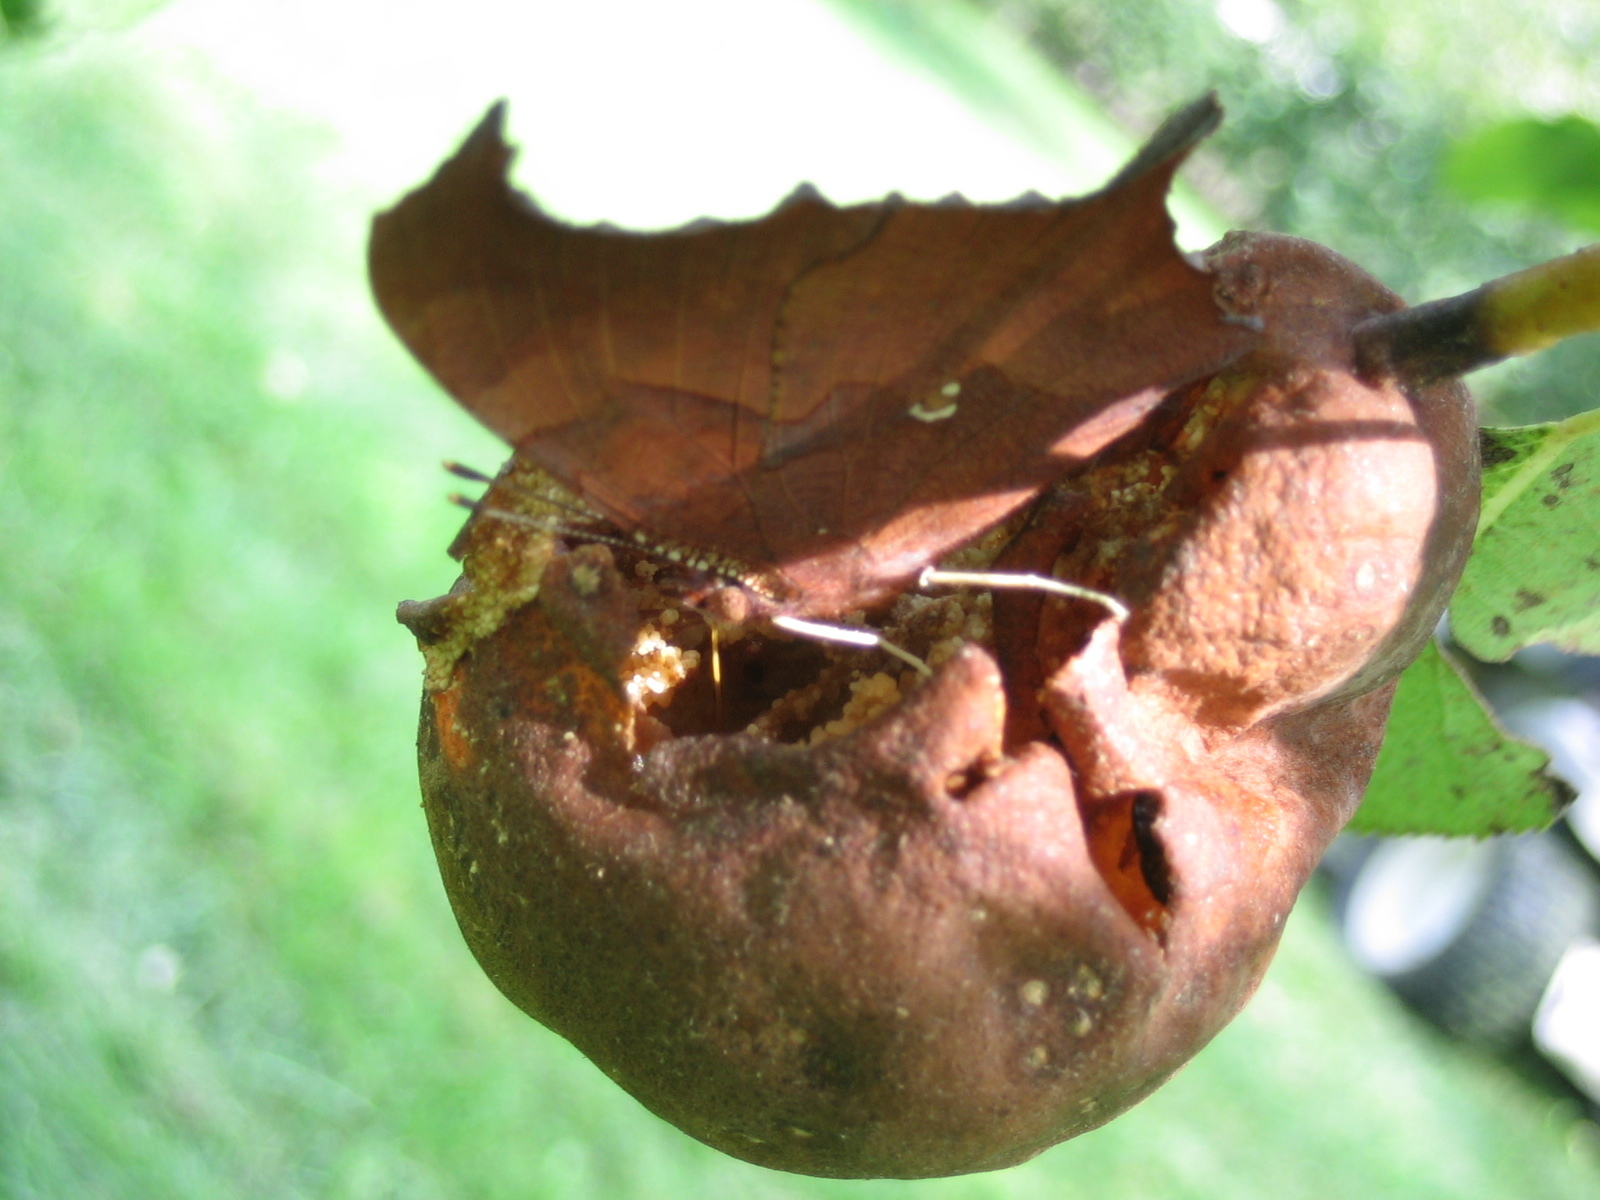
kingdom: Animalia
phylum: Arthropoda
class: Insecta
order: Lepidoptera
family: Nymphalidae
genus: Polygonia
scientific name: Polygonia interrogationis
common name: Question mark
